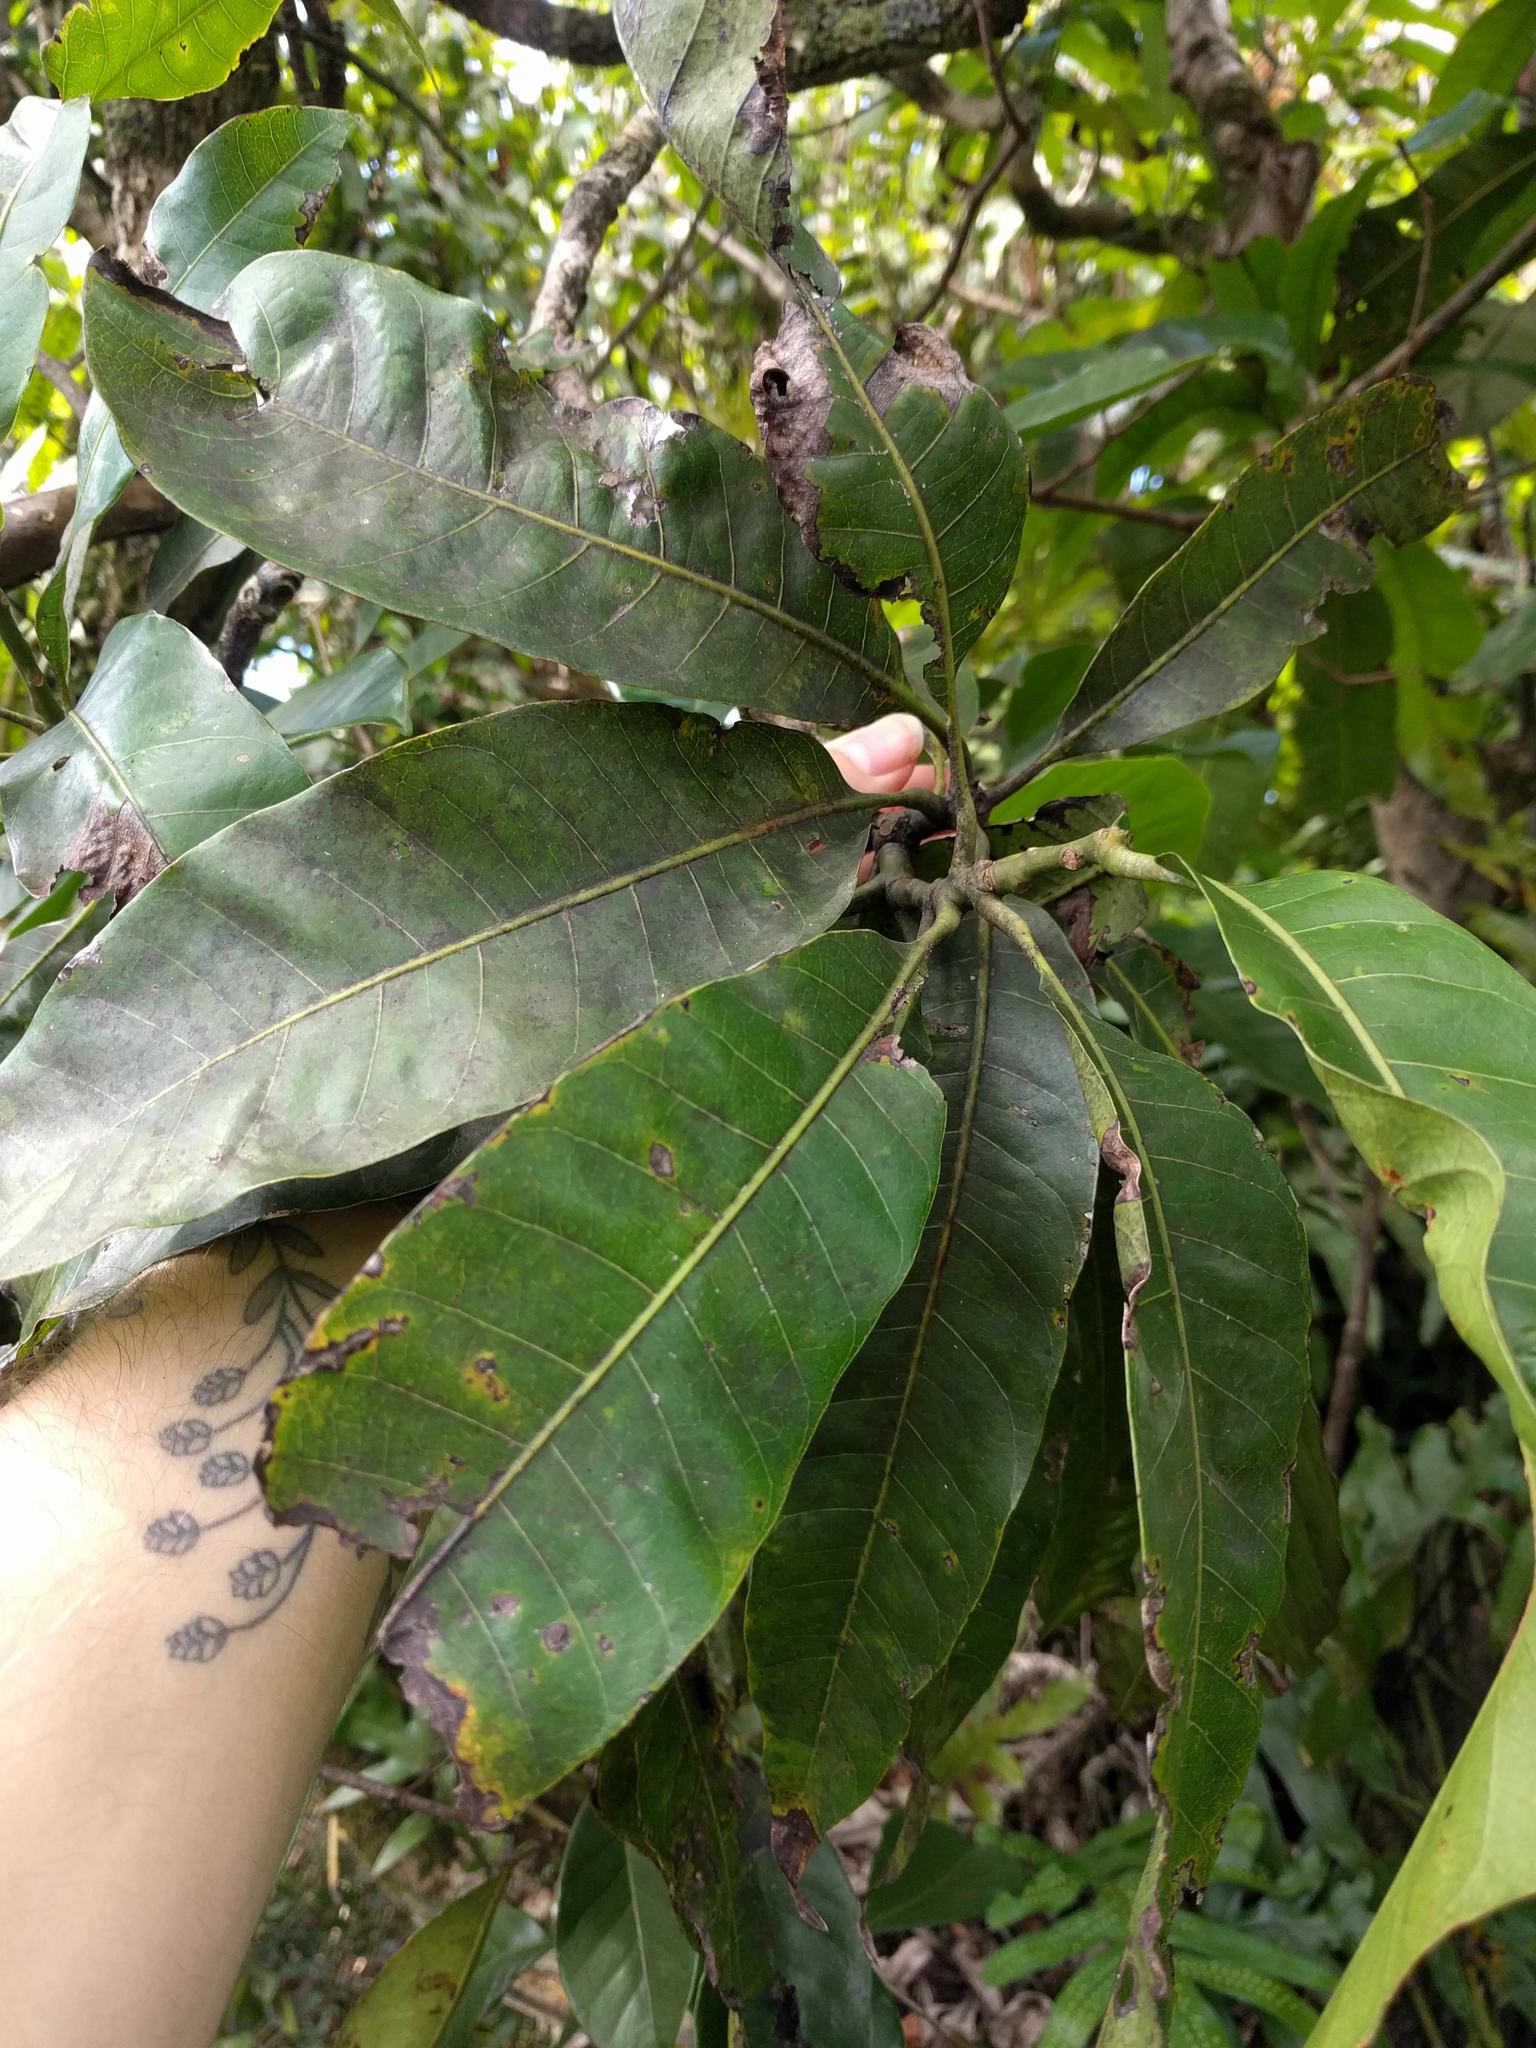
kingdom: Plantae
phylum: Tracheophyta
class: Magnoliopsida
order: Sapindales
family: Anacardiaceae
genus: Mangifera
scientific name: Mangifera indica
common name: Mango
